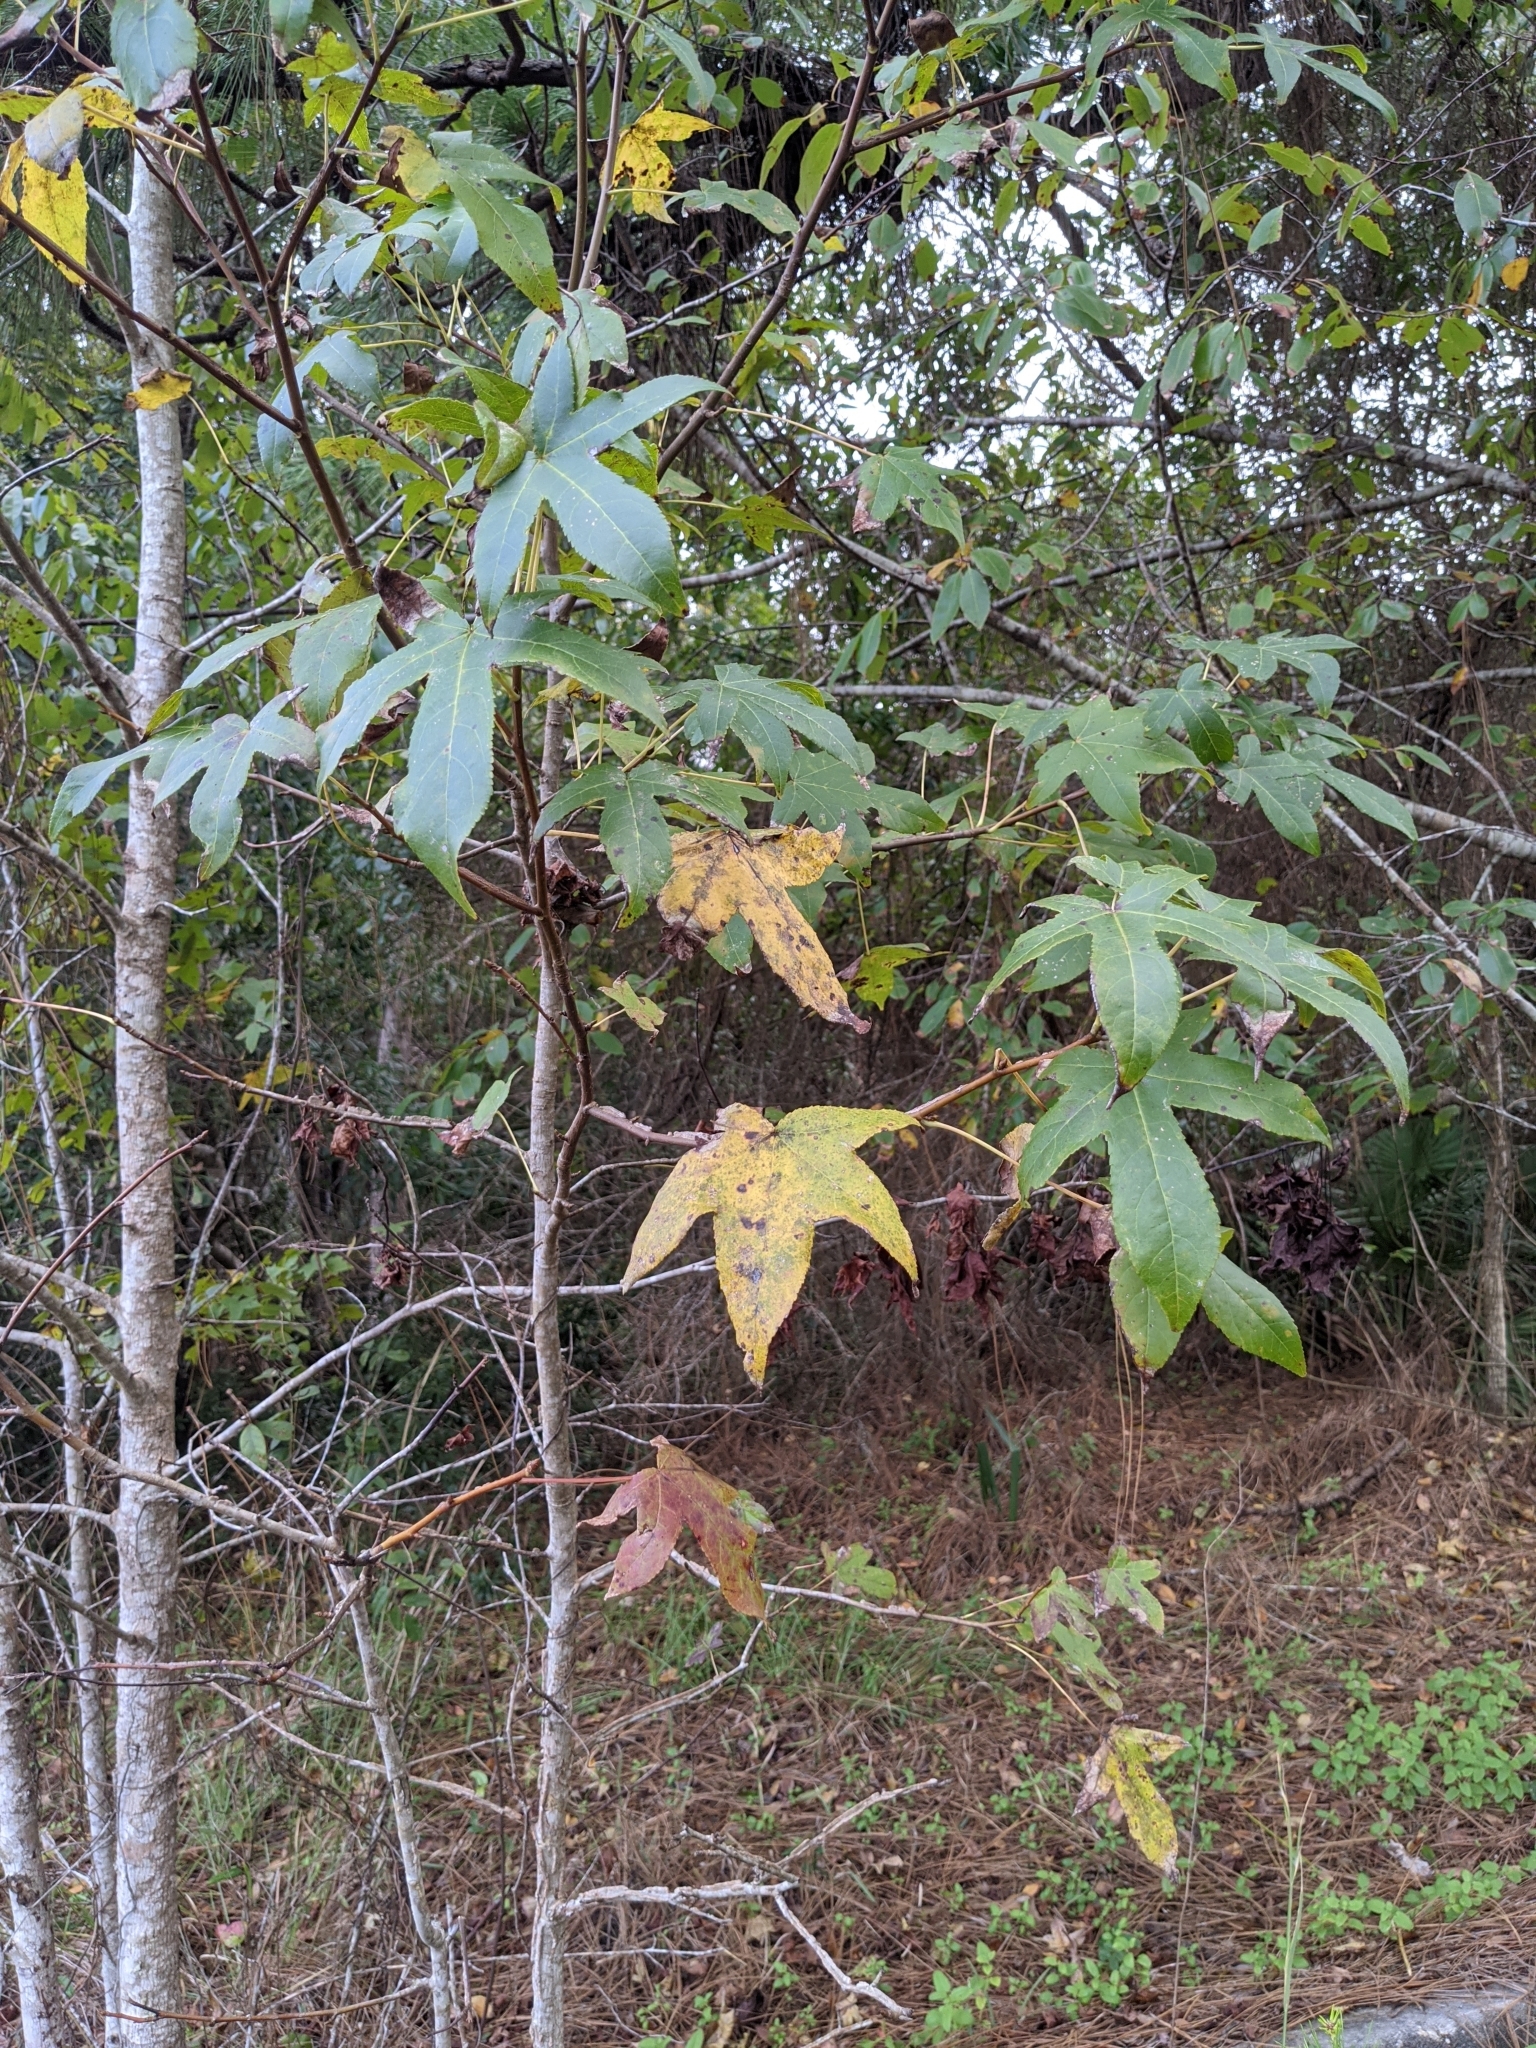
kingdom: Plantae
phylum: Tracheophyta
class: Magnoliopsida
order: Saxifragales
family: Altingiaceae
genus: Liquidambar
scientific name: Liquidambar styraciflua
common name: Sweet gum
